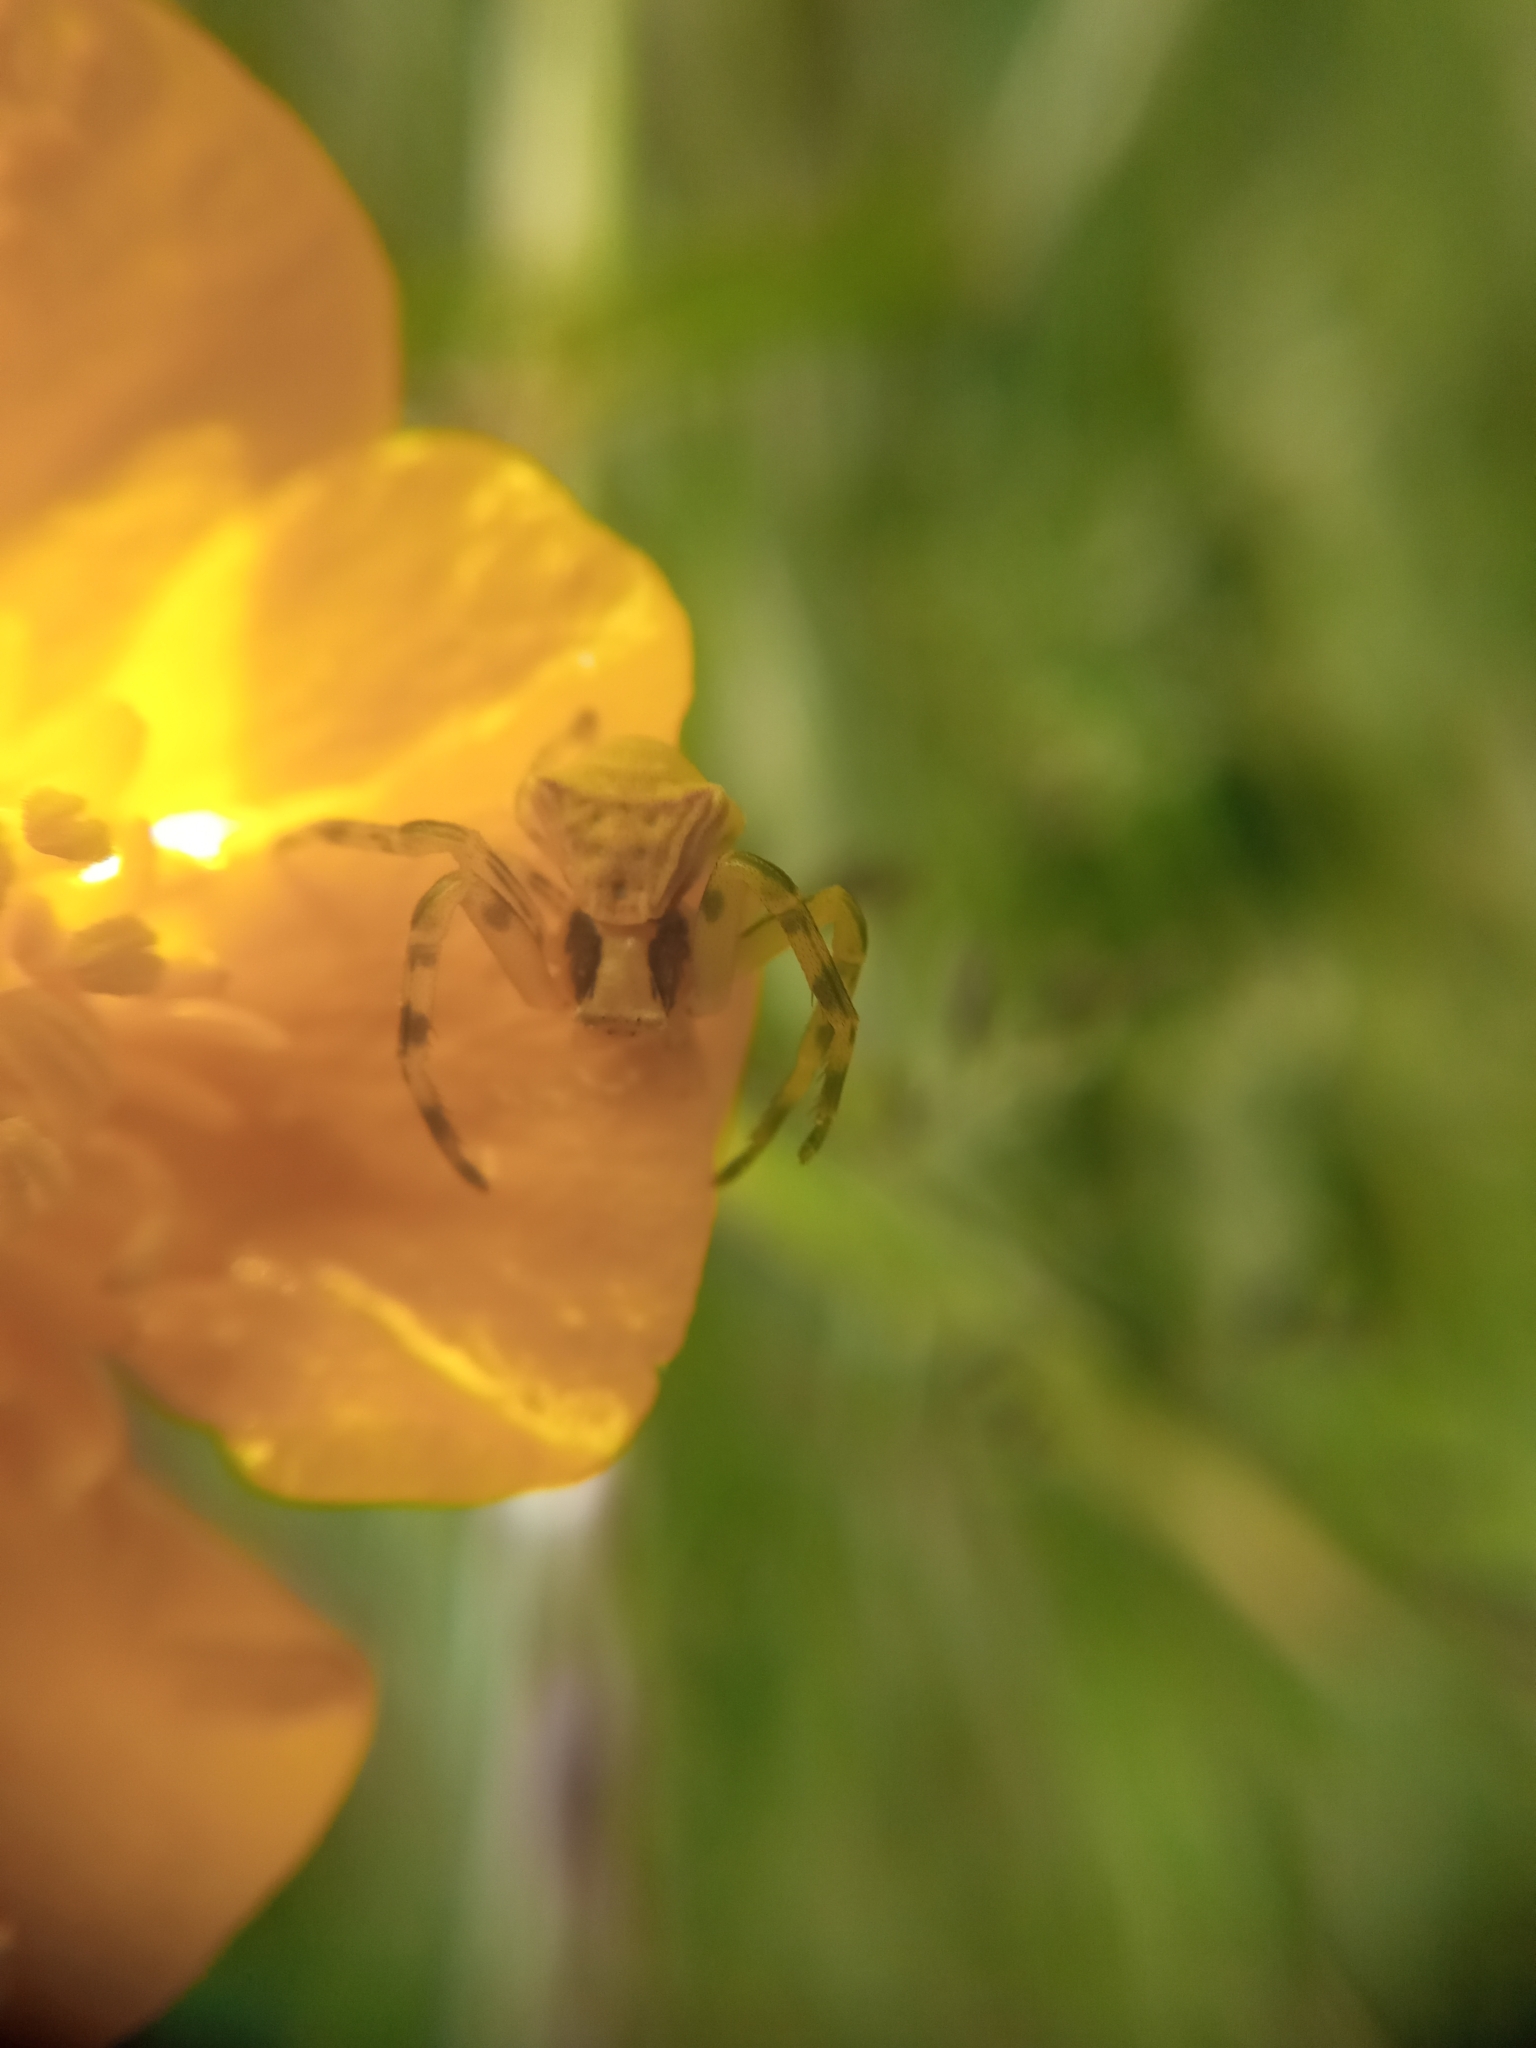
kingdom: Animalia
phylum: Arthropoda
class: Arachnida
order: Araneae
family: Thomisidae
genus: Thomisus
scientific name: Thomisus onustus
